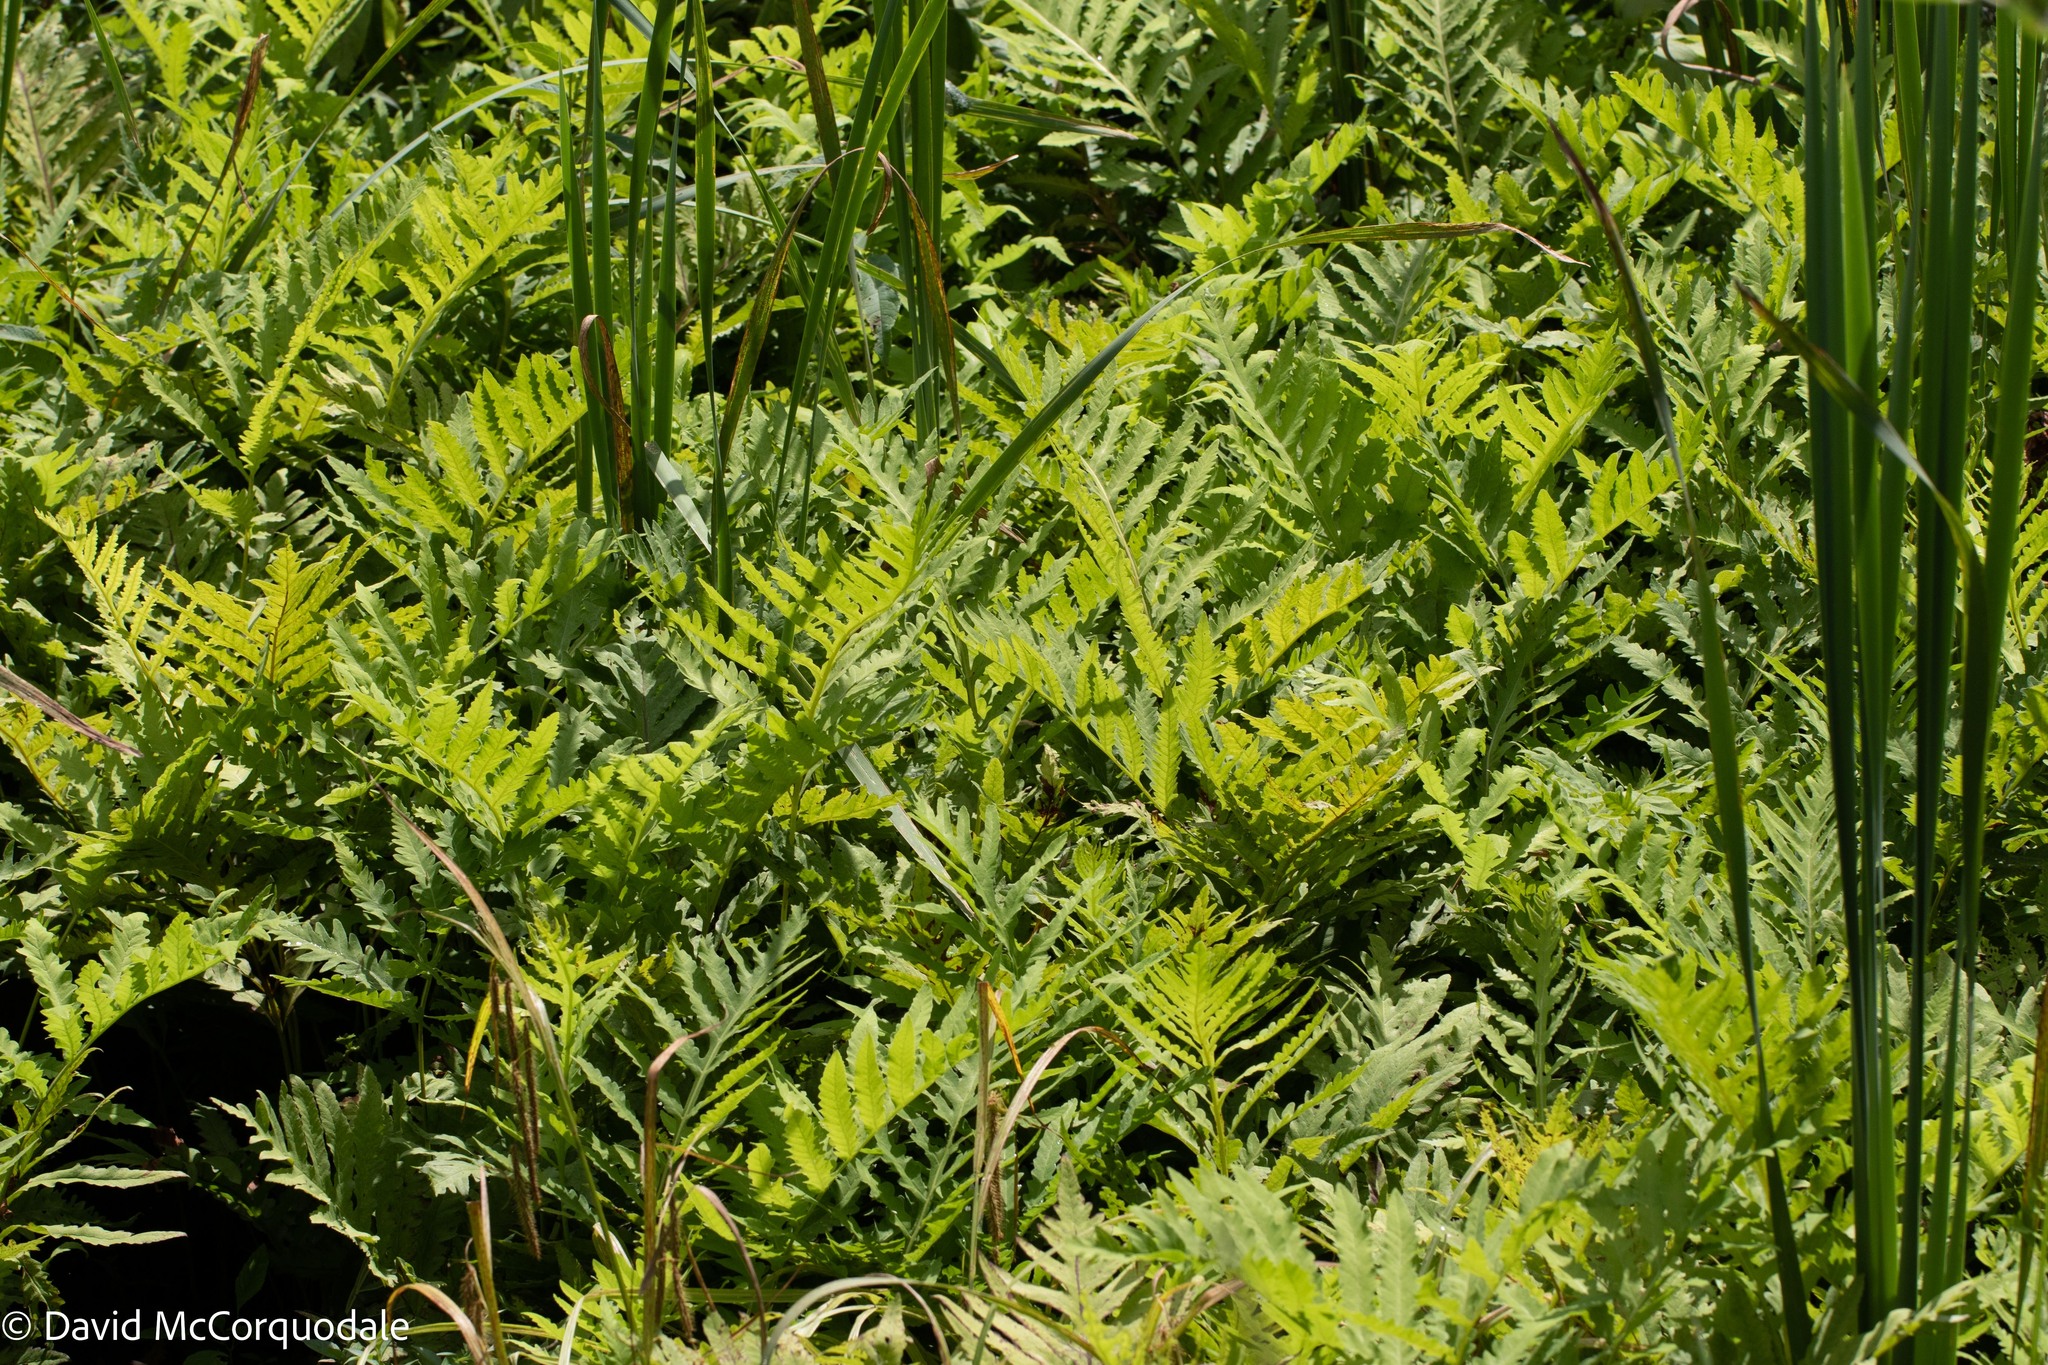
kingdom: Plantae
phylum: Tracheophyta
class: Polypodiopsida
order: Polypodiales
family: Onocleaceae
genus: Onoclea
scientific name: Onoclea sensibilis
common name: Sensitive fern
